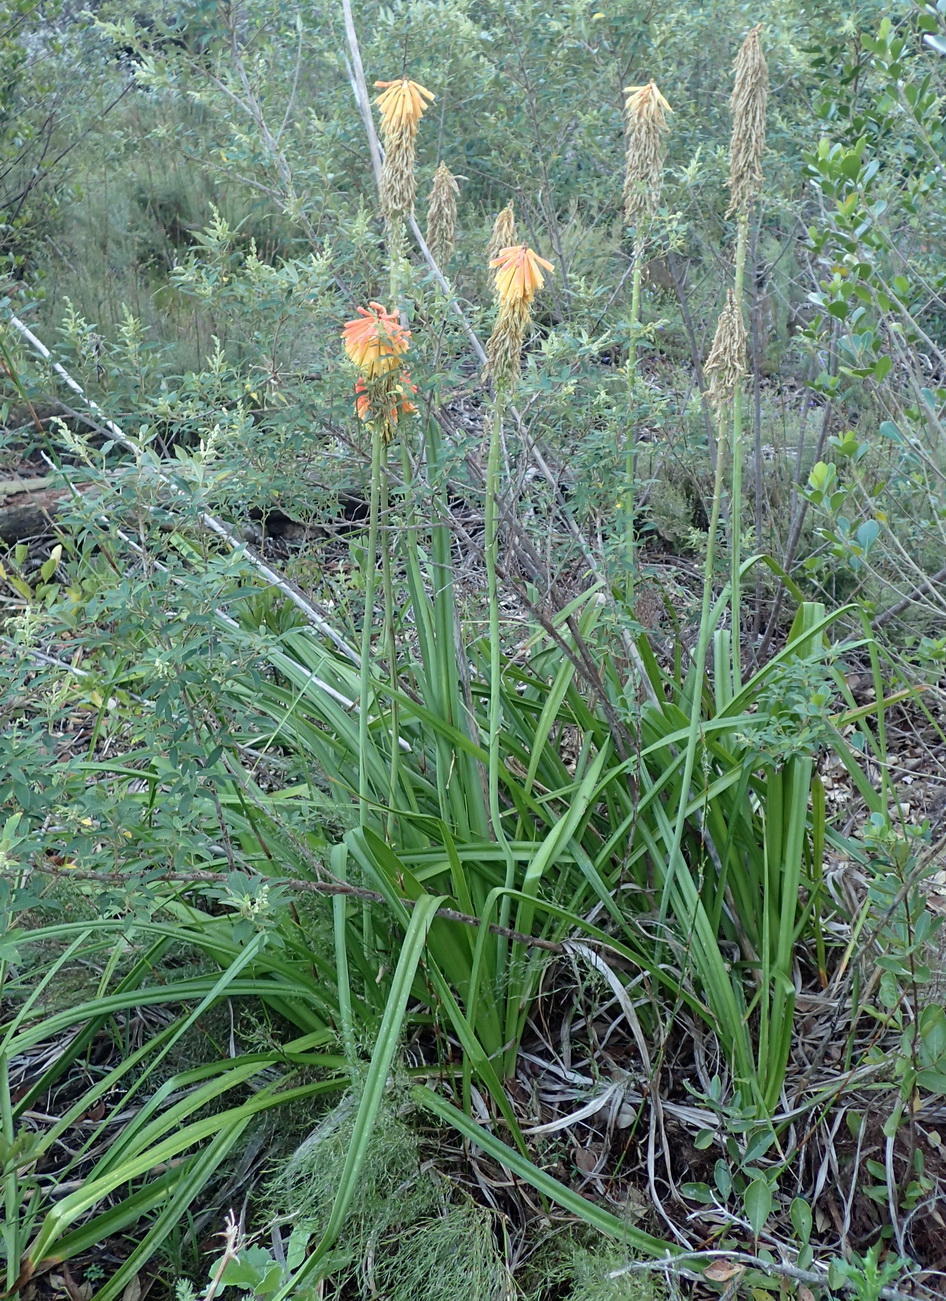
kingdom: Plantae
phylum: Tracheophyta
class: Liliopsida
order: Asparagales
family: Asphodelaceae
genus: Kniphofia
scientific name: Kniphofia uvaria
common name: Red-hot-poker
